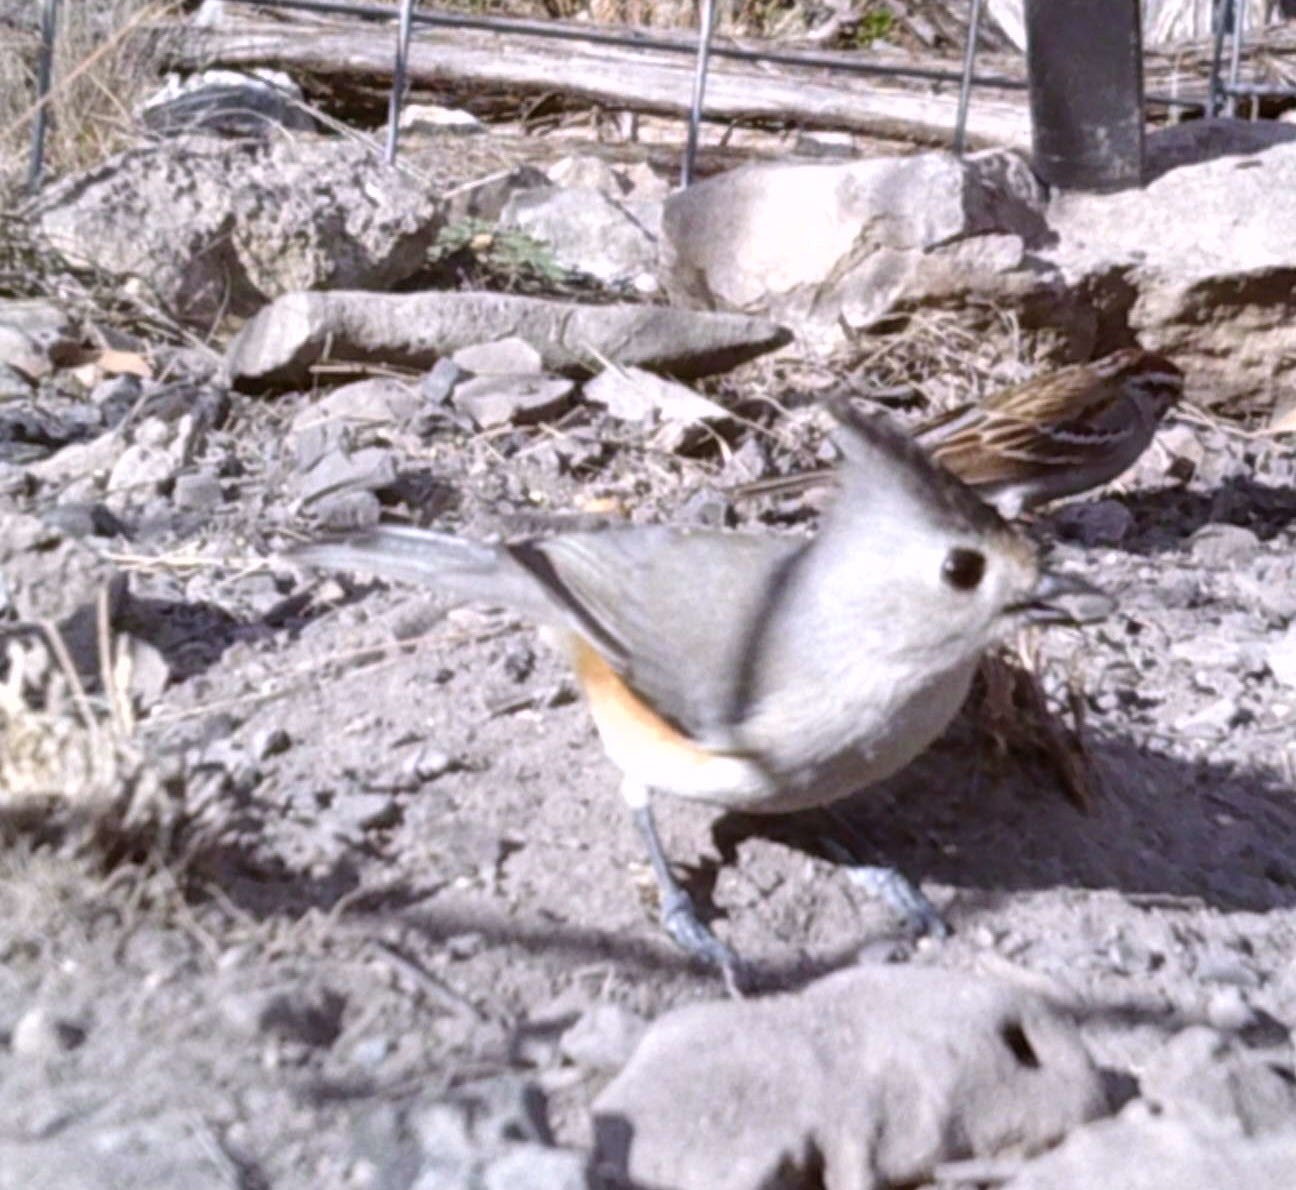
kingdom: Animalia
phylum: Chordata
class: Aves
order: Passeriformes
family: Paridae
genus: Baeolophus
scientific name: Baeolophus atricristatus
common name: Black-crested titmouse
